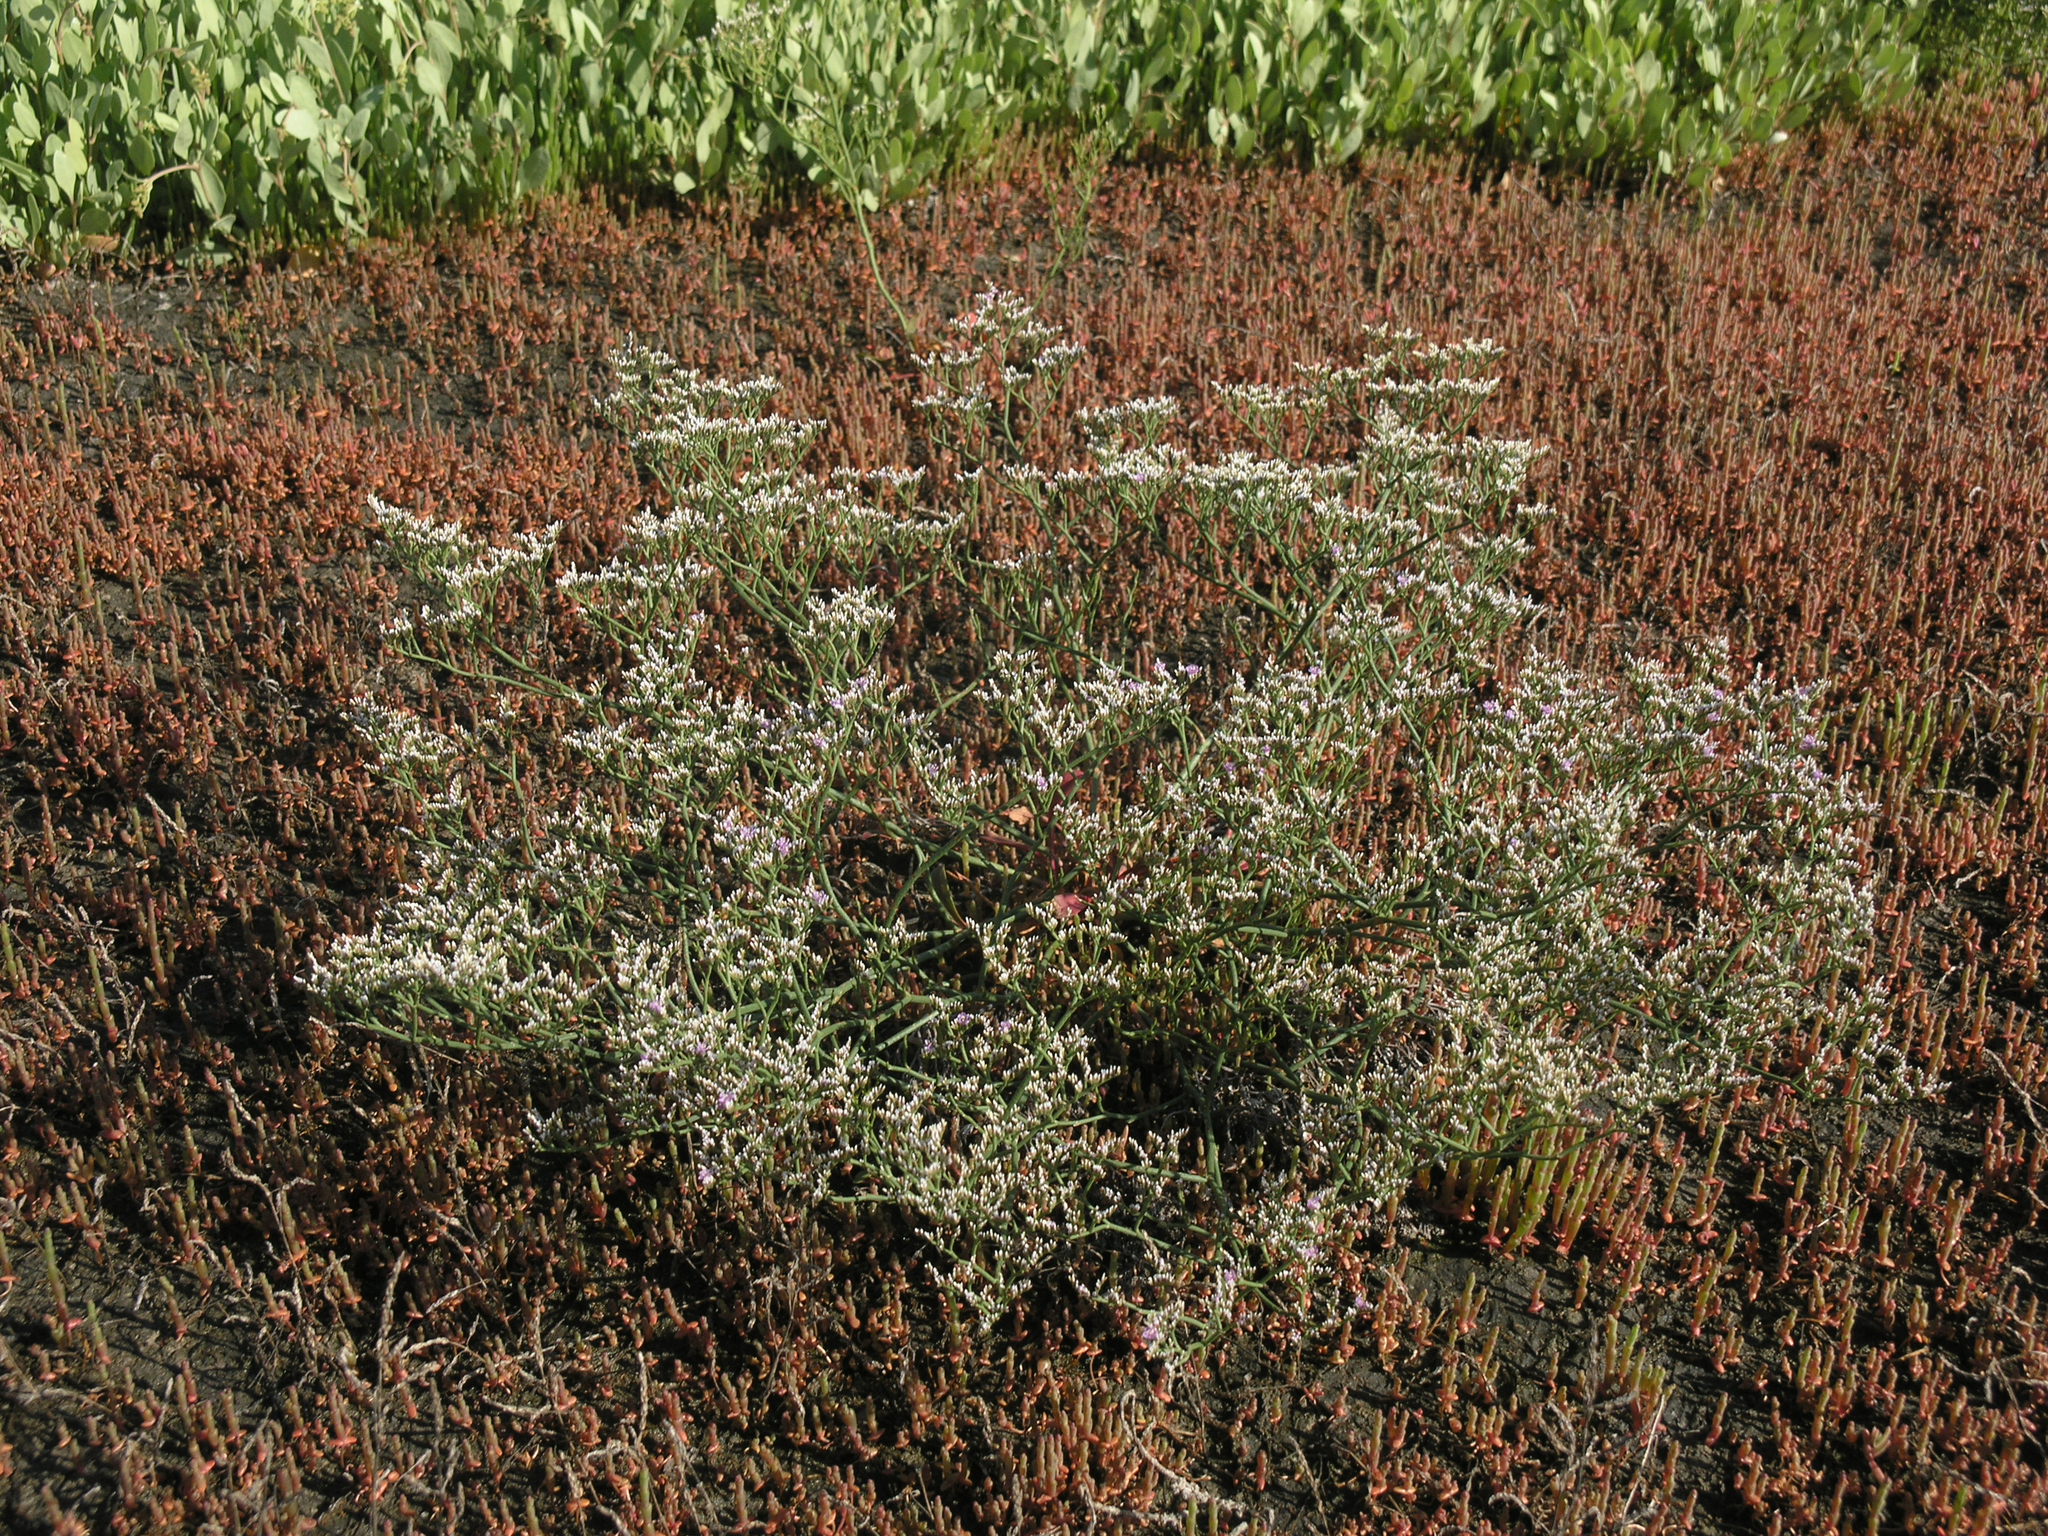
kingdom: Plantae
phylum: Tracheophyta
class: Magnoliopsida
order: Caryophyllales
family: Plumbaginaceae
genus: Limonium
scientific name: Limonium bellidifolium
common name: Matted sea-lavender
